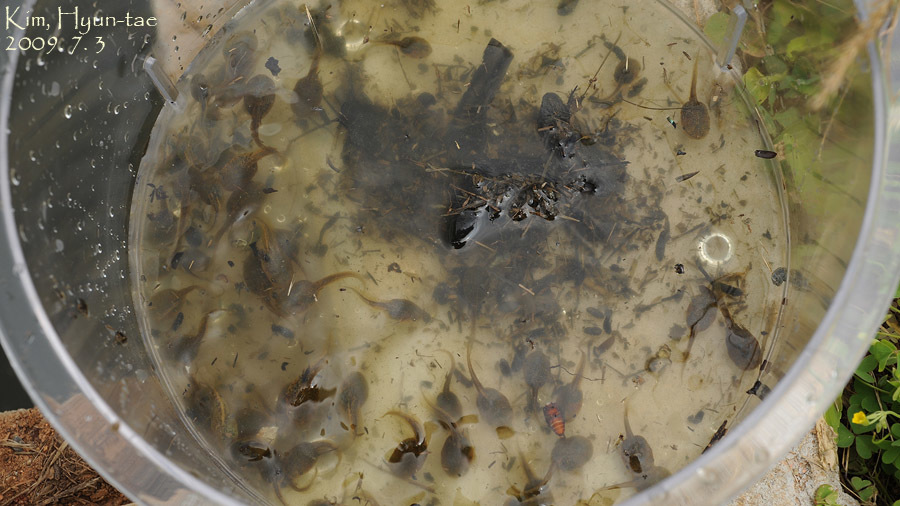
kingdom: Animalia
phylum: Chordata
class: Amphibia
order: Anura
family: Microhylidae
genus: Kaloula
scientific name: Kaloula borealis
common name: Boreal digging frog
